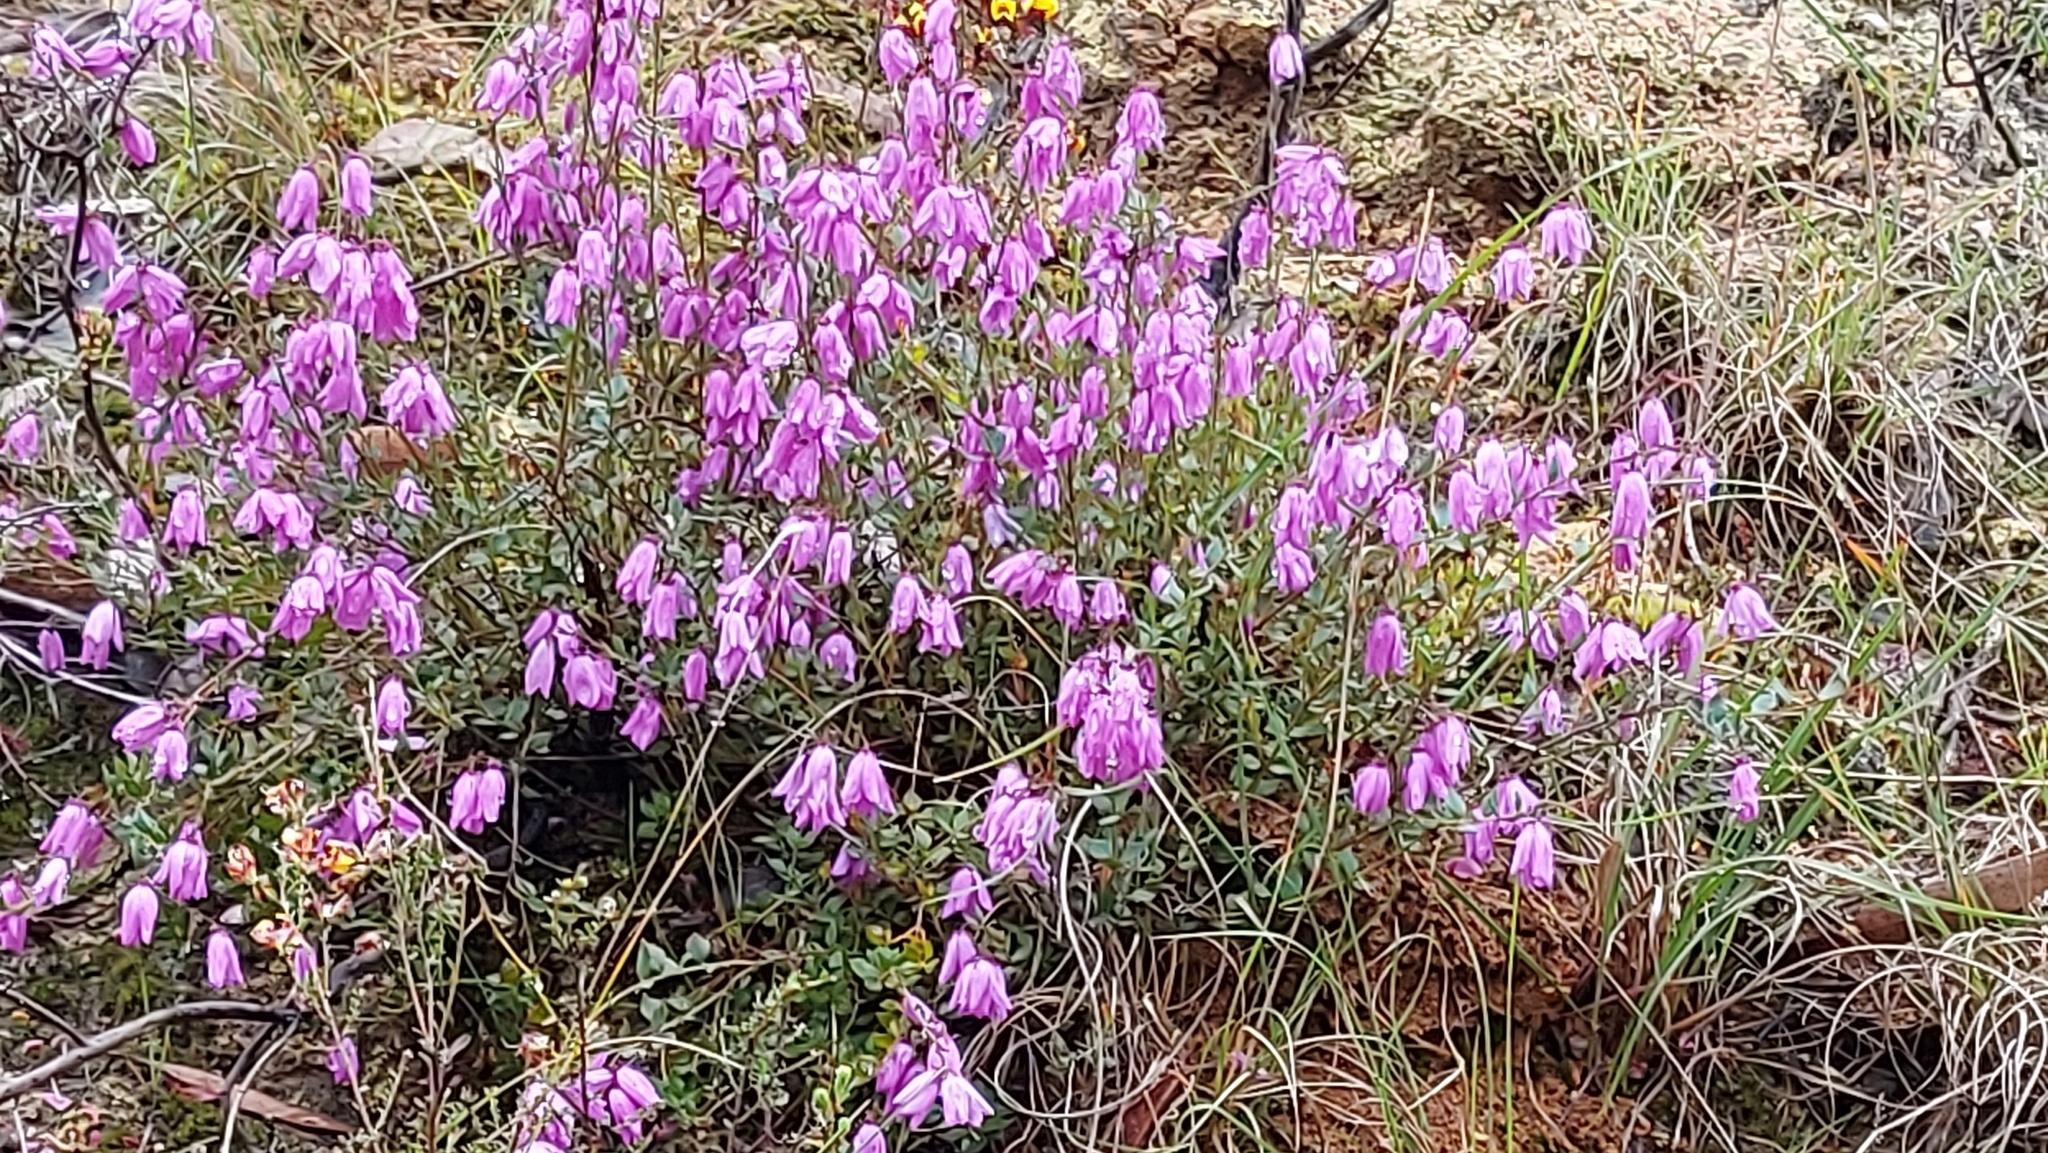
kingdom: Plantae
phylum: Tracheophyta
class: Magnoliopsida
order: Oxalidales
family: Elaeocarpaceae
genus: Tetratheca
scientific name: Tetratheca ciliata
